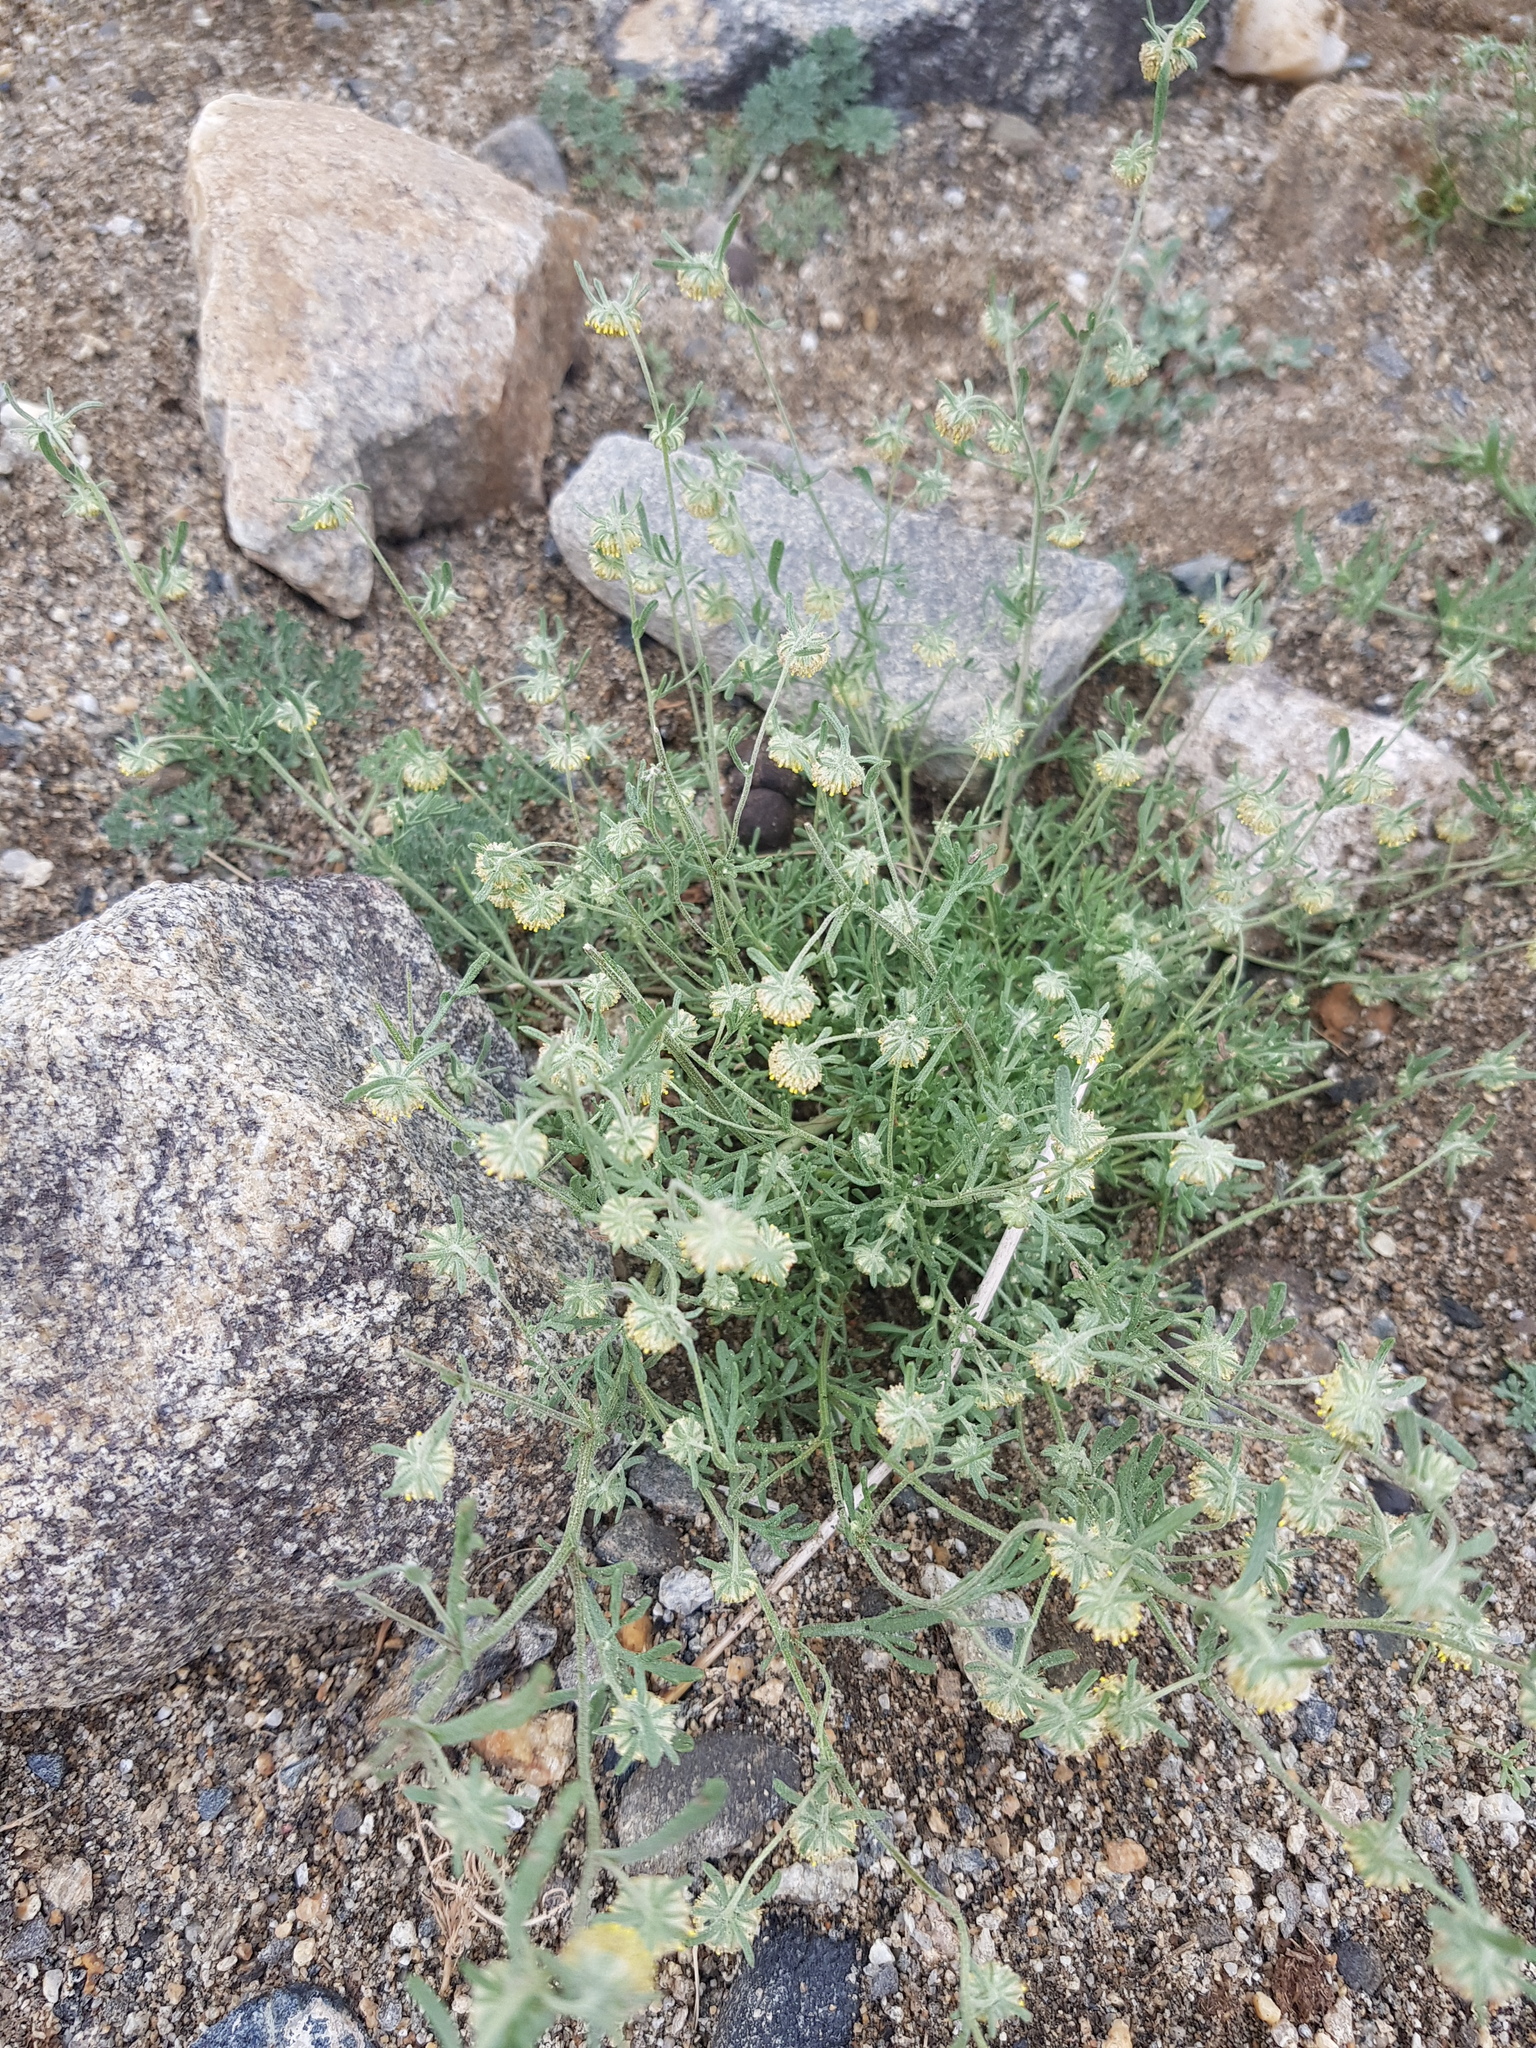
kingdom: Plantae
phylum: Tracheophyta
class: Magnoliopsida
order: Asterales
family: Asteraceae
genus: Artemisia
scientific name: Artemisia macrocephala
